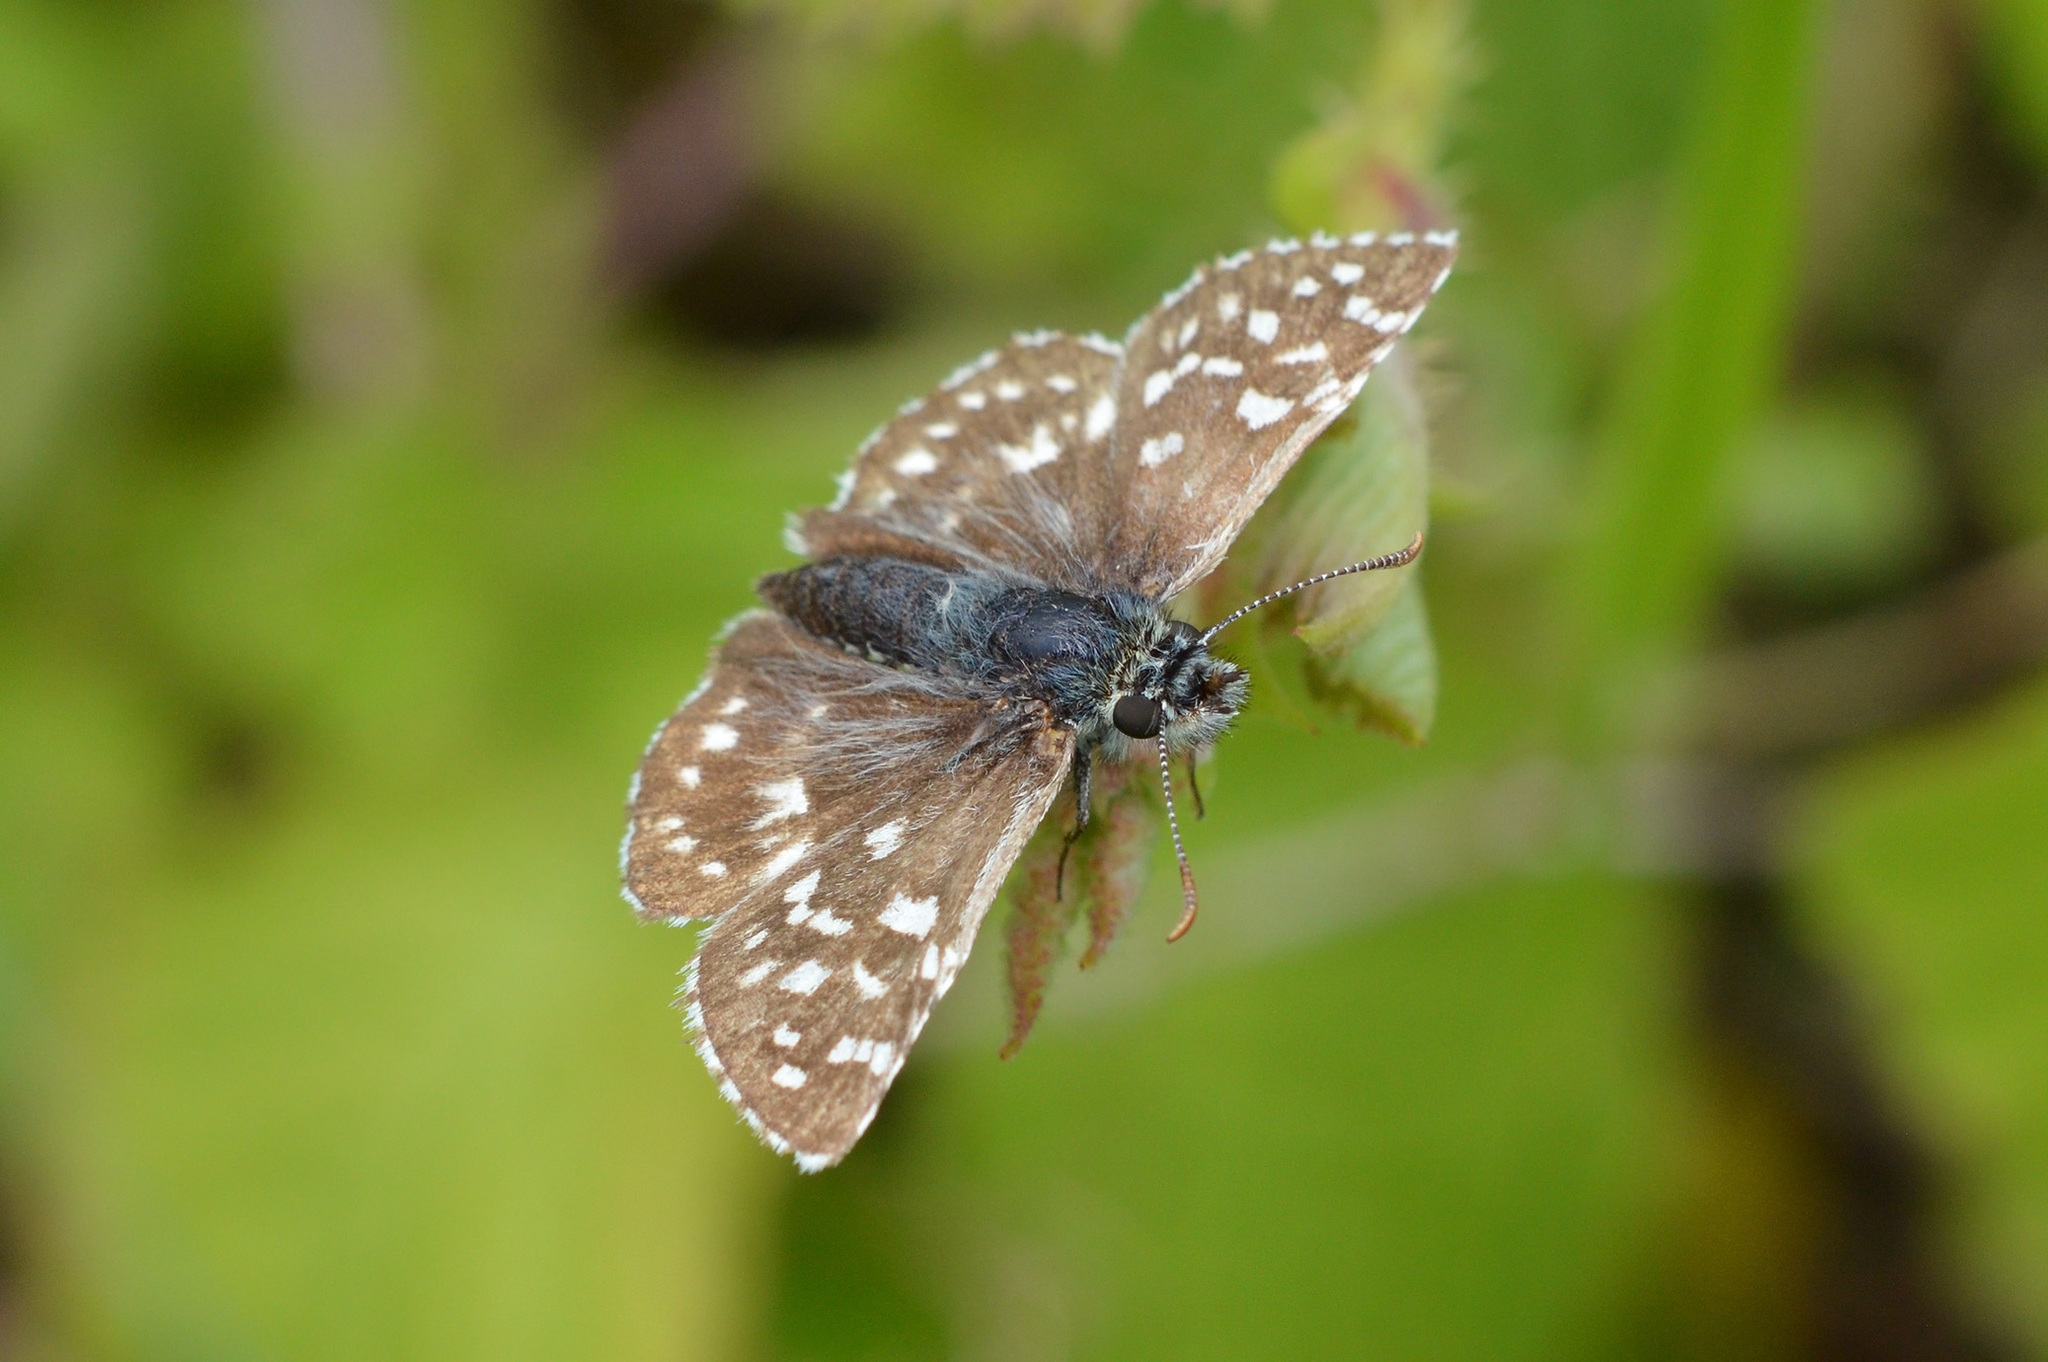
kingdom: Animalia
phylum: Arthropoda
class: Insecta
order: Lepidoptera
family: Hesperiidae
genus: Pyrgus
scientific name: Pyrgus malvae
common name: Grizzled skipper
